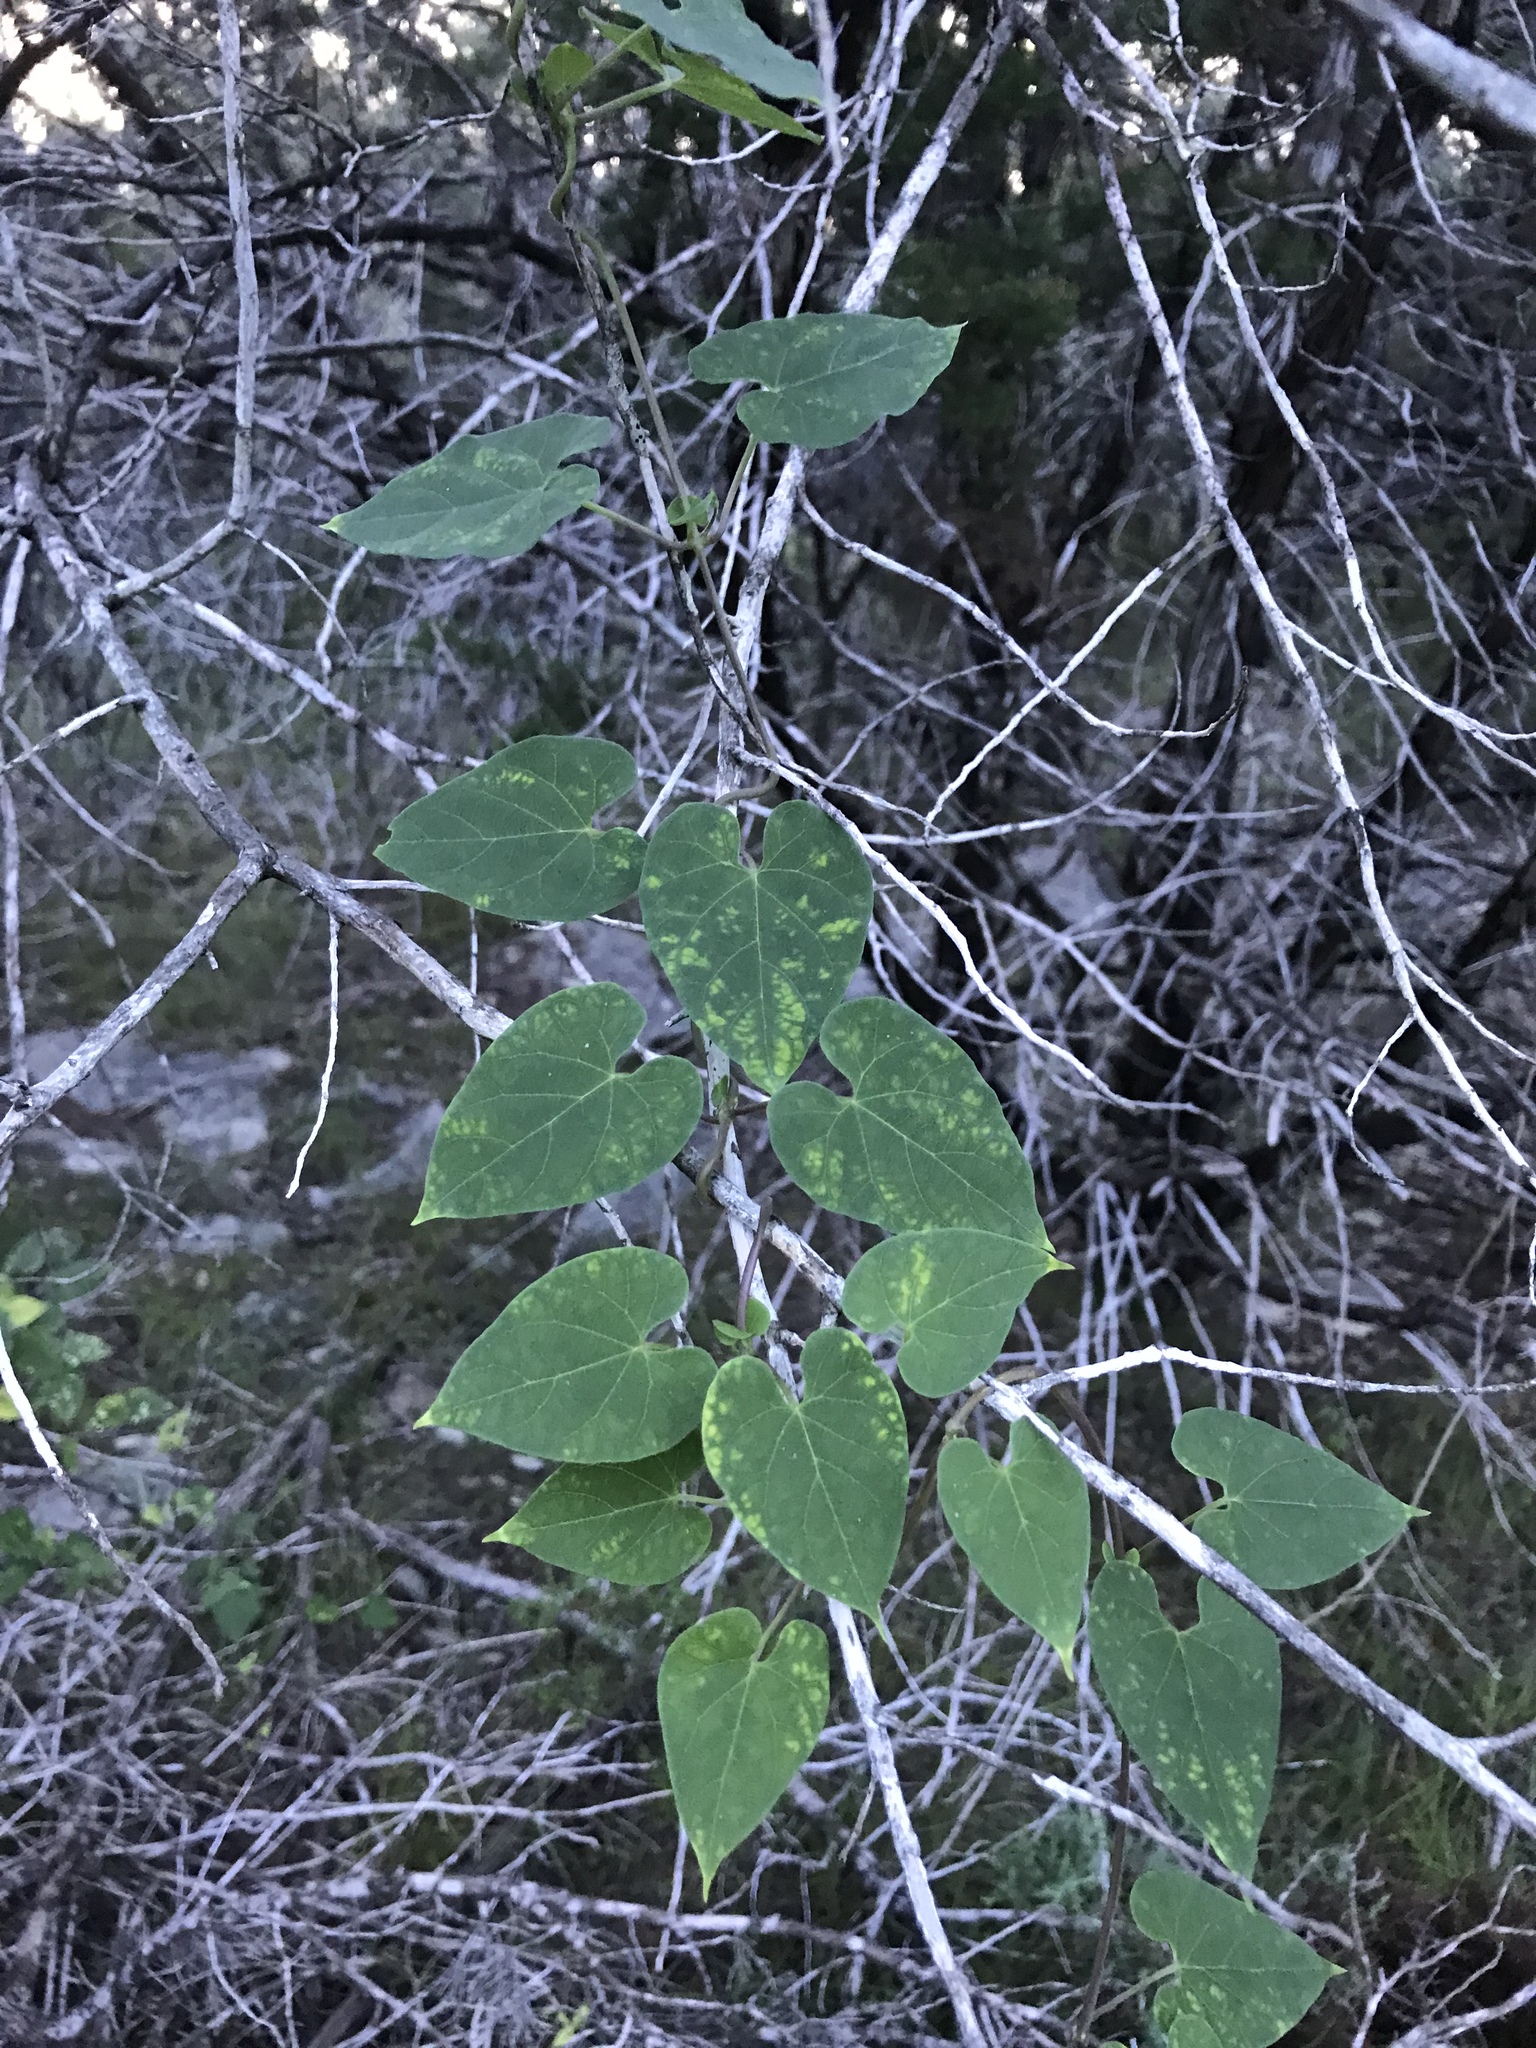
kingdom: Plantae
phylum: Tracheophyta
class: Magnoliopsida
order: Gentianales
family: Apocynaceae
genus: Dictyanthus
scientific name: Dictyanthus reticulatus
